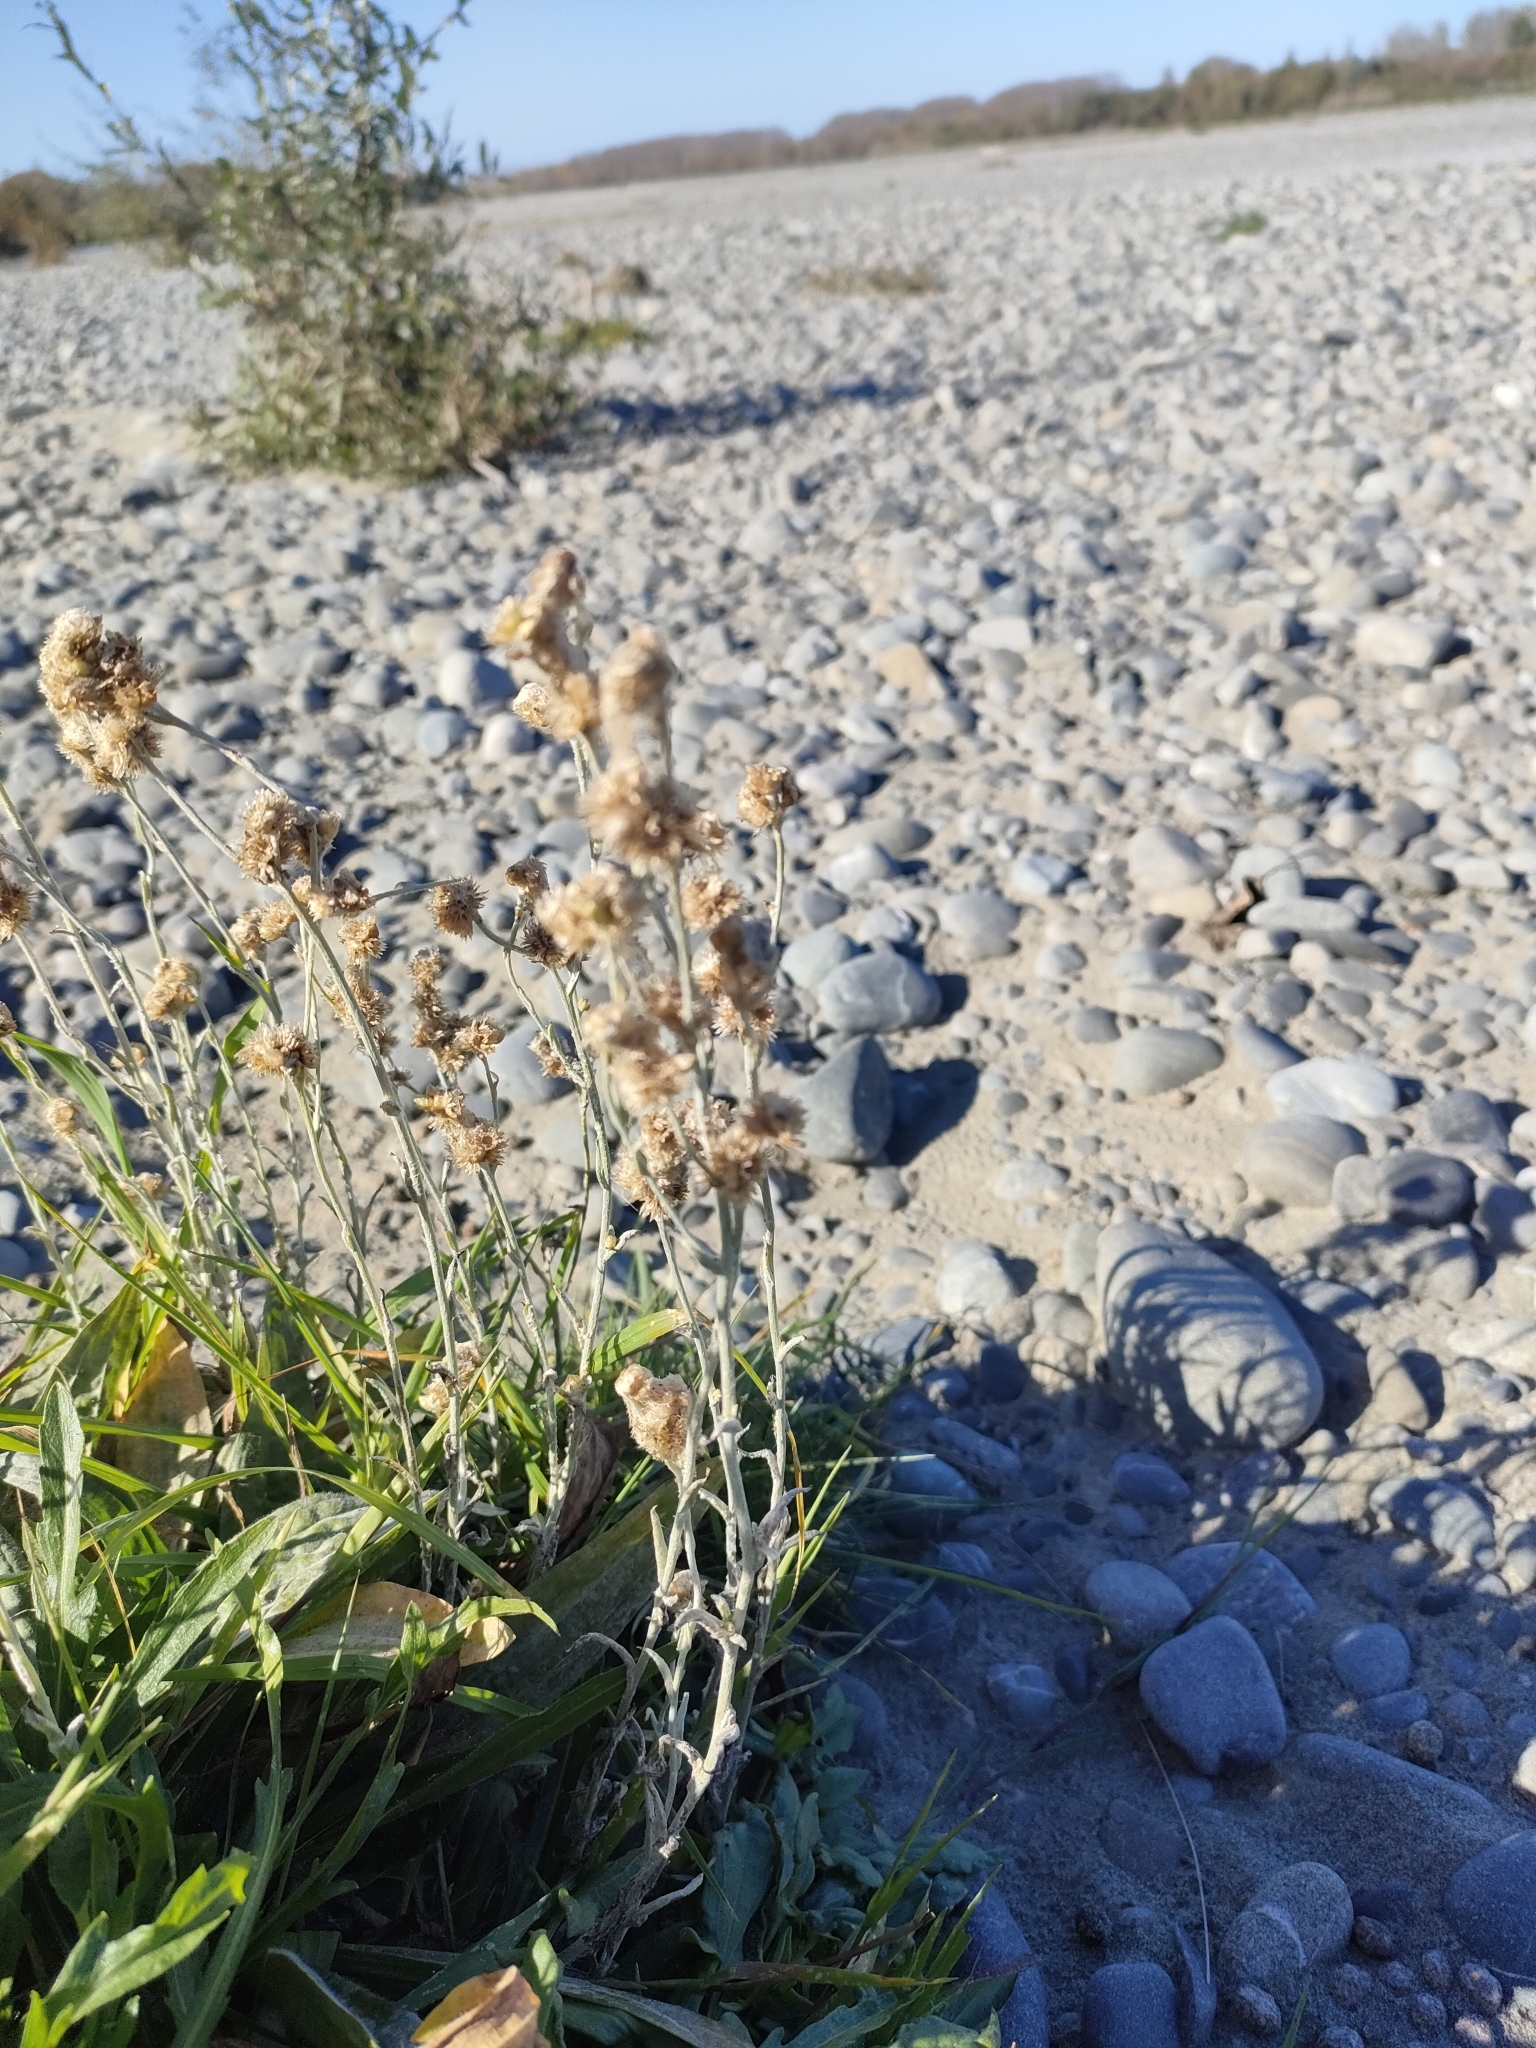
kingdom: Plantae
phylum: Tracheophyta
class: Magnoliopsida
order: Asterales
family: Asteraceae
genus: Helichrysum
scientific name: Helichrysum luteoalbum
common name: Daisy
